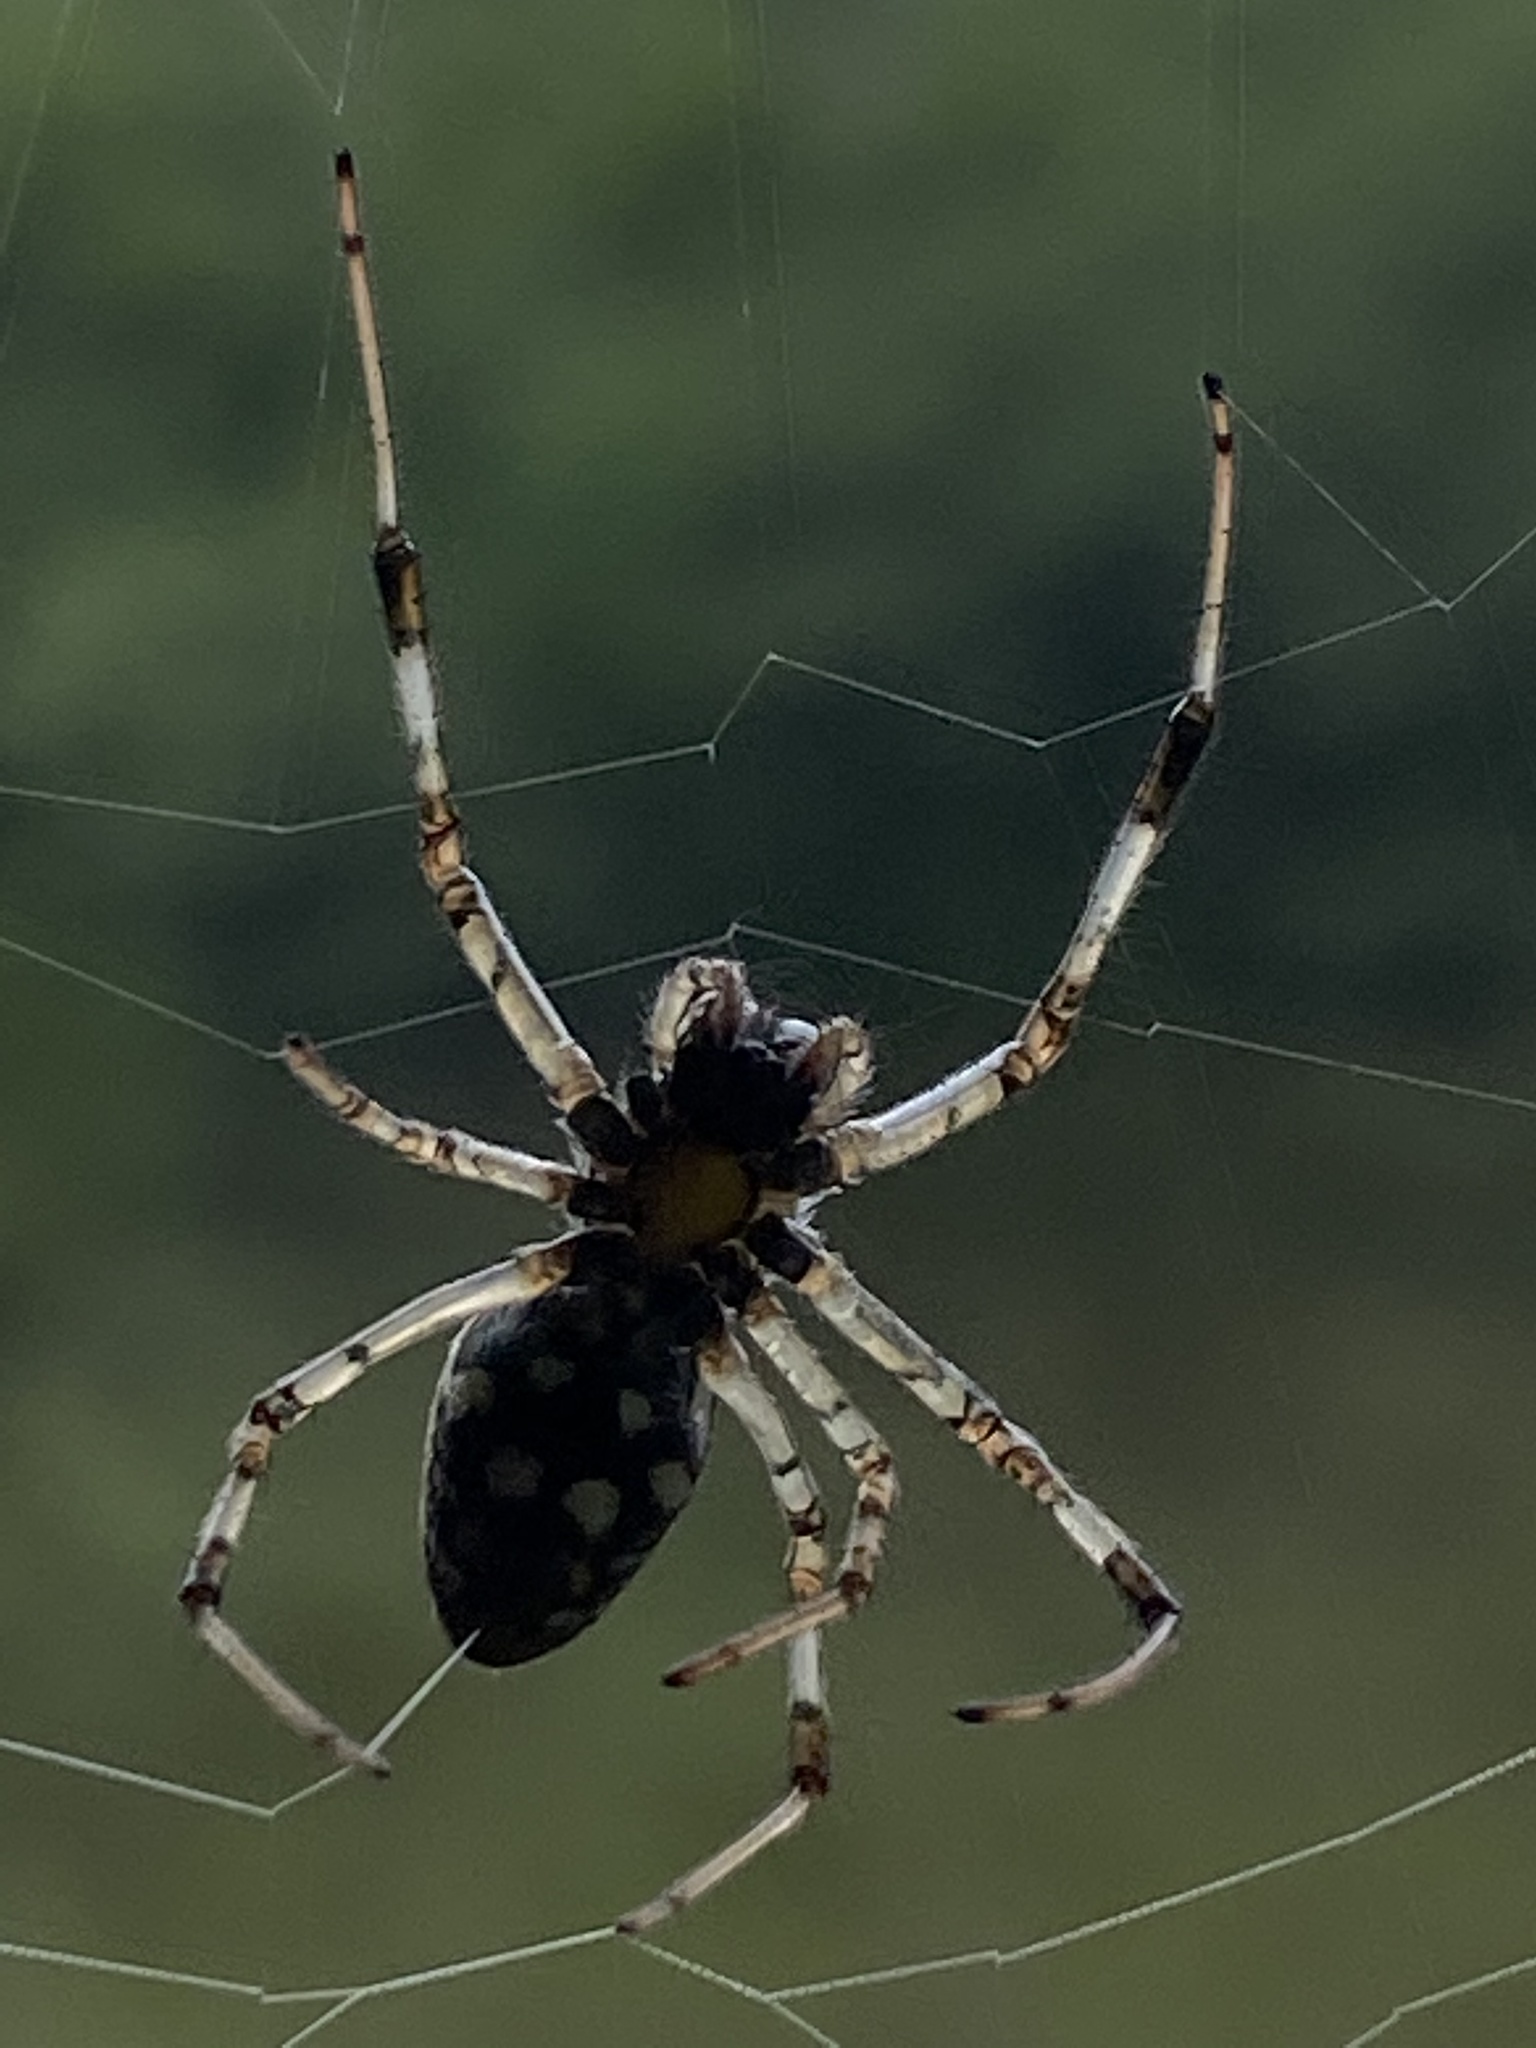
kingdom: Animalia
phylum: Arthropoda
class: Arachnida
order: Araneae
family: Araneidae
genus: Nephilingis
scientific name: Nephilingis cruentata
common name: African hermit spider
